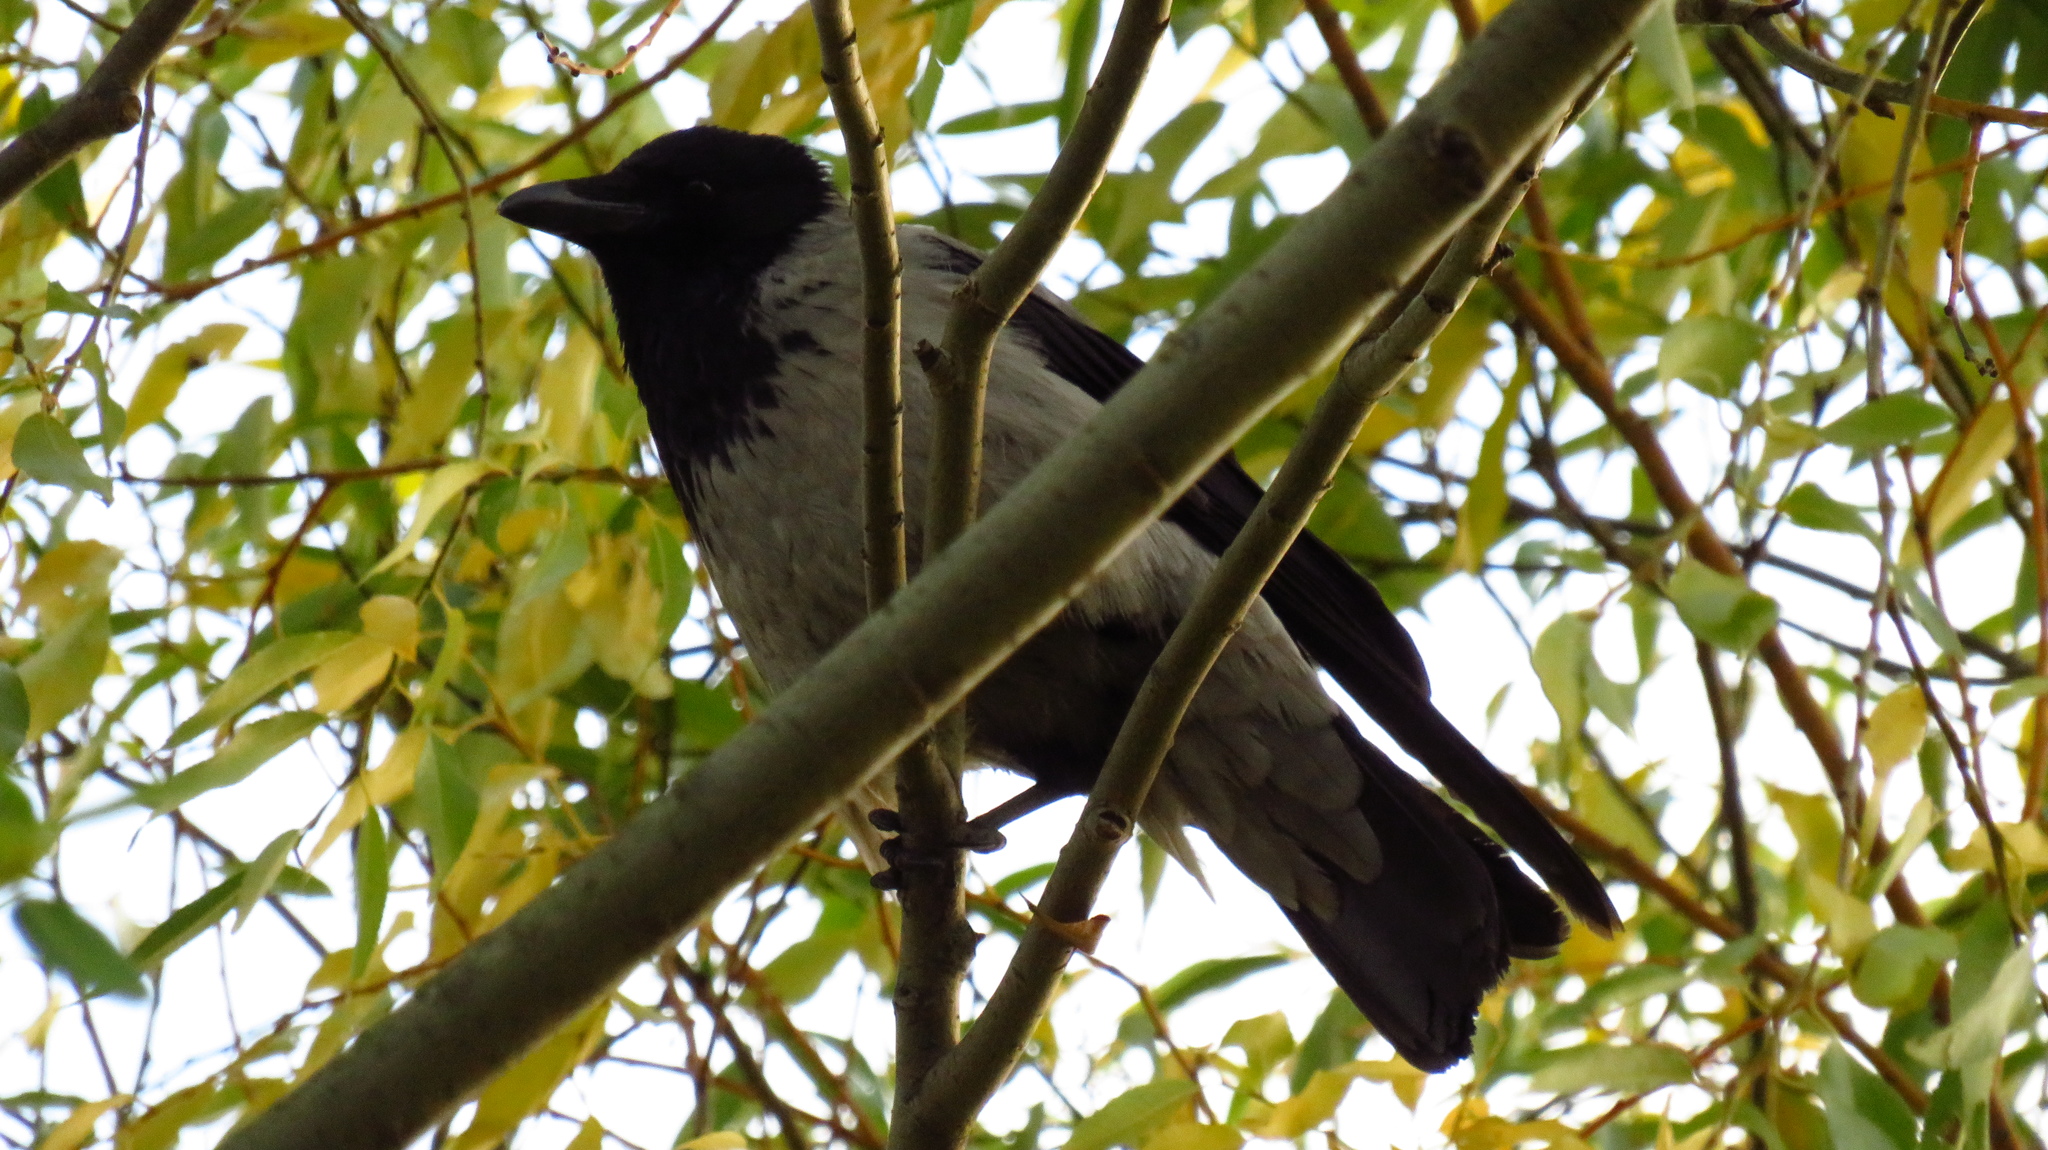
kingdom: Animalia
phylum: Chordata
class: Aves
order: Passeriformes
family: Corvidae
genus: Corvus
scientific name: Corvus cornix
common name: Hooded crow
